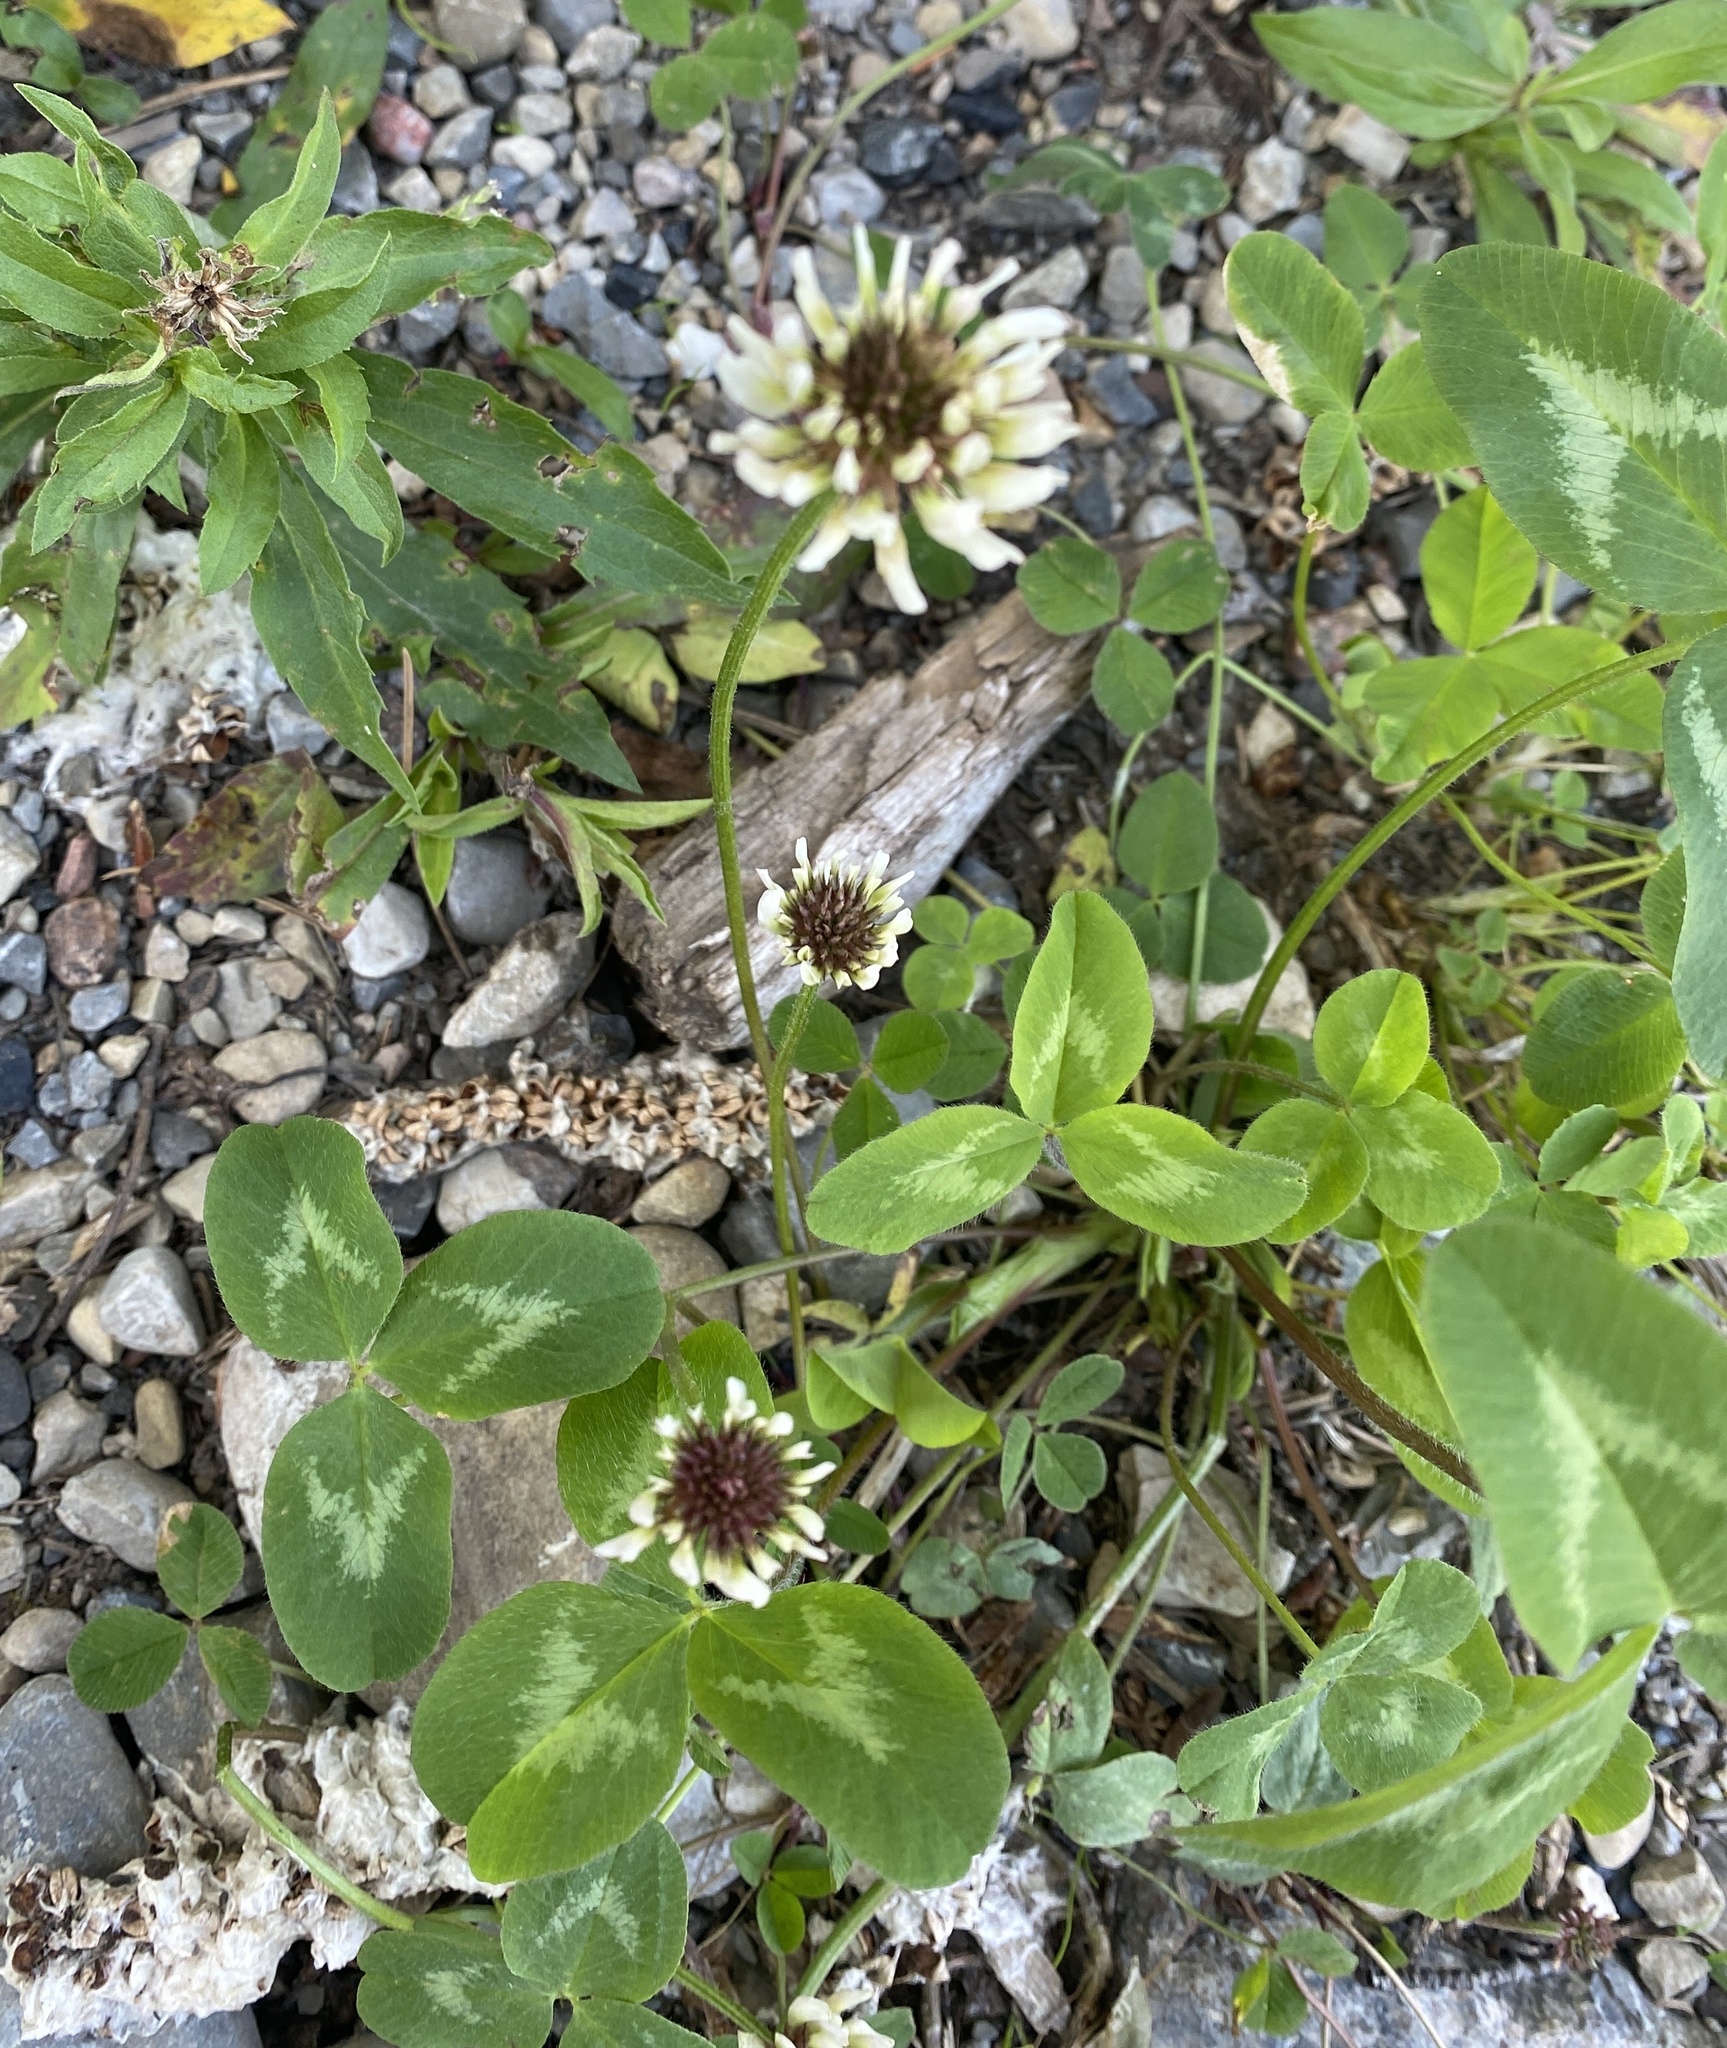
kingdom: Plantae
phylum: Tracheophyta
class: Magnoliopsida
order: Fabales
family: Fabaceae
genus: Trifolium
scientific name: Trifolium repens
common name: White clover
